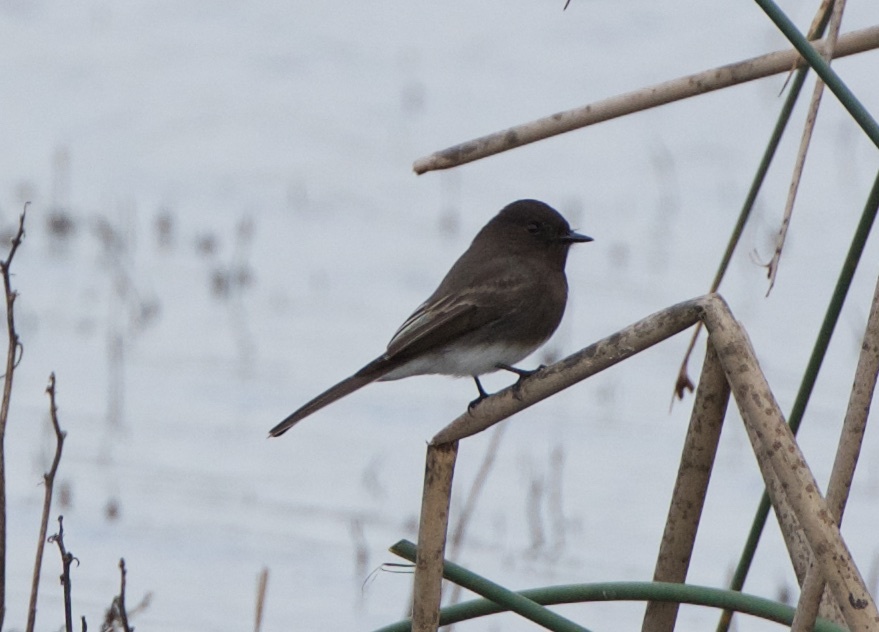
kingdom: Animalia
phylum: Chordata
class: Aves
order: Passeriformes
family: Tyrannidae
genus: Sayornis
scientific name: Sayornis nigricans
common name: Black phoebe
